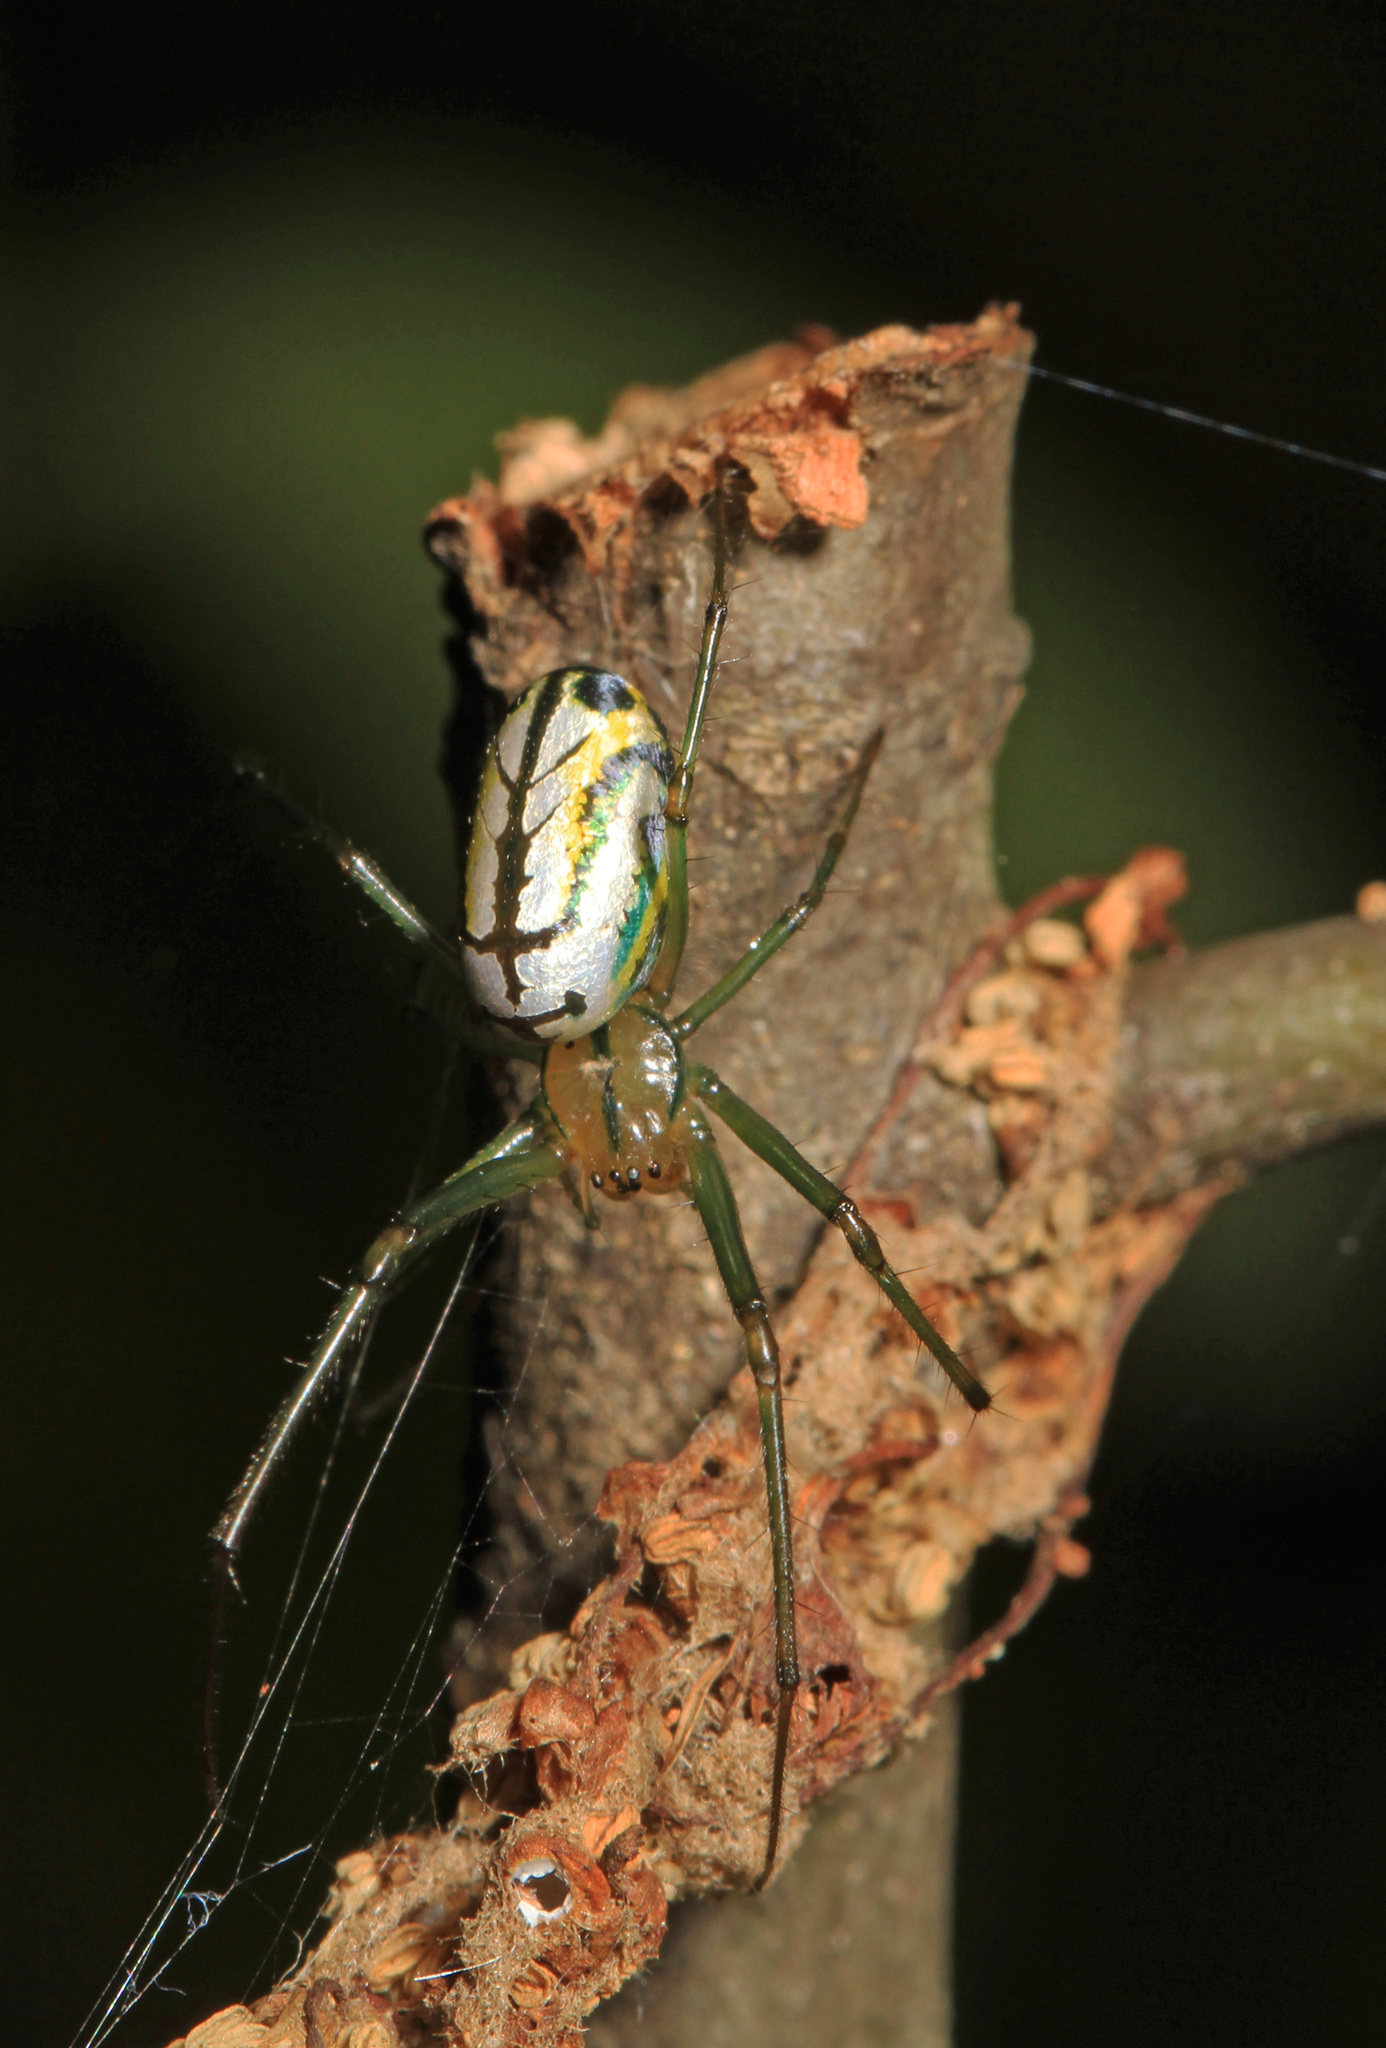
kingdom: Animalia
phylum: Arthropoda
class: Arachnida
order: Araneae
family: Tetragnathidae
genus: Leucauge
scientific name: Leucauge venusta
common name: Longjawed orb weavers
